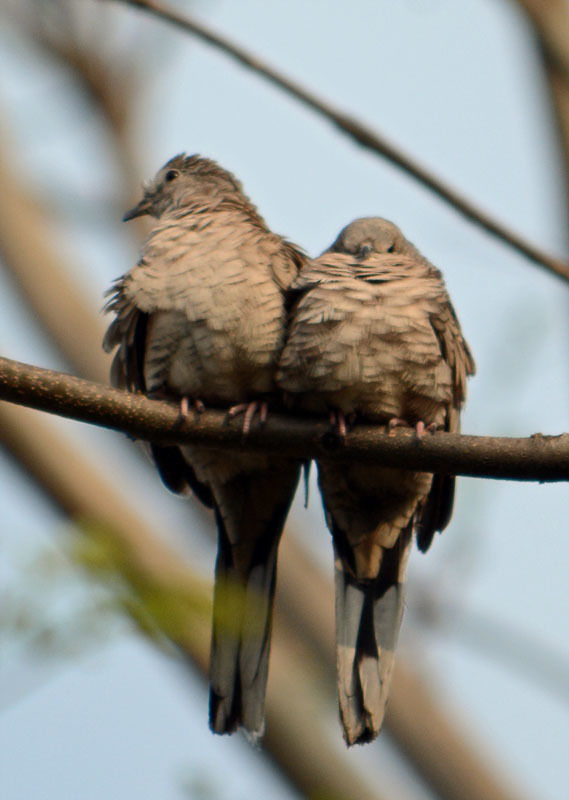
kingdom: Animalia
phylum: Chordata
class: Aves
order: Columbiformes
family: Columbidae
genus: Columbina
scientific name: Columbina inca
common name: Inca dove
